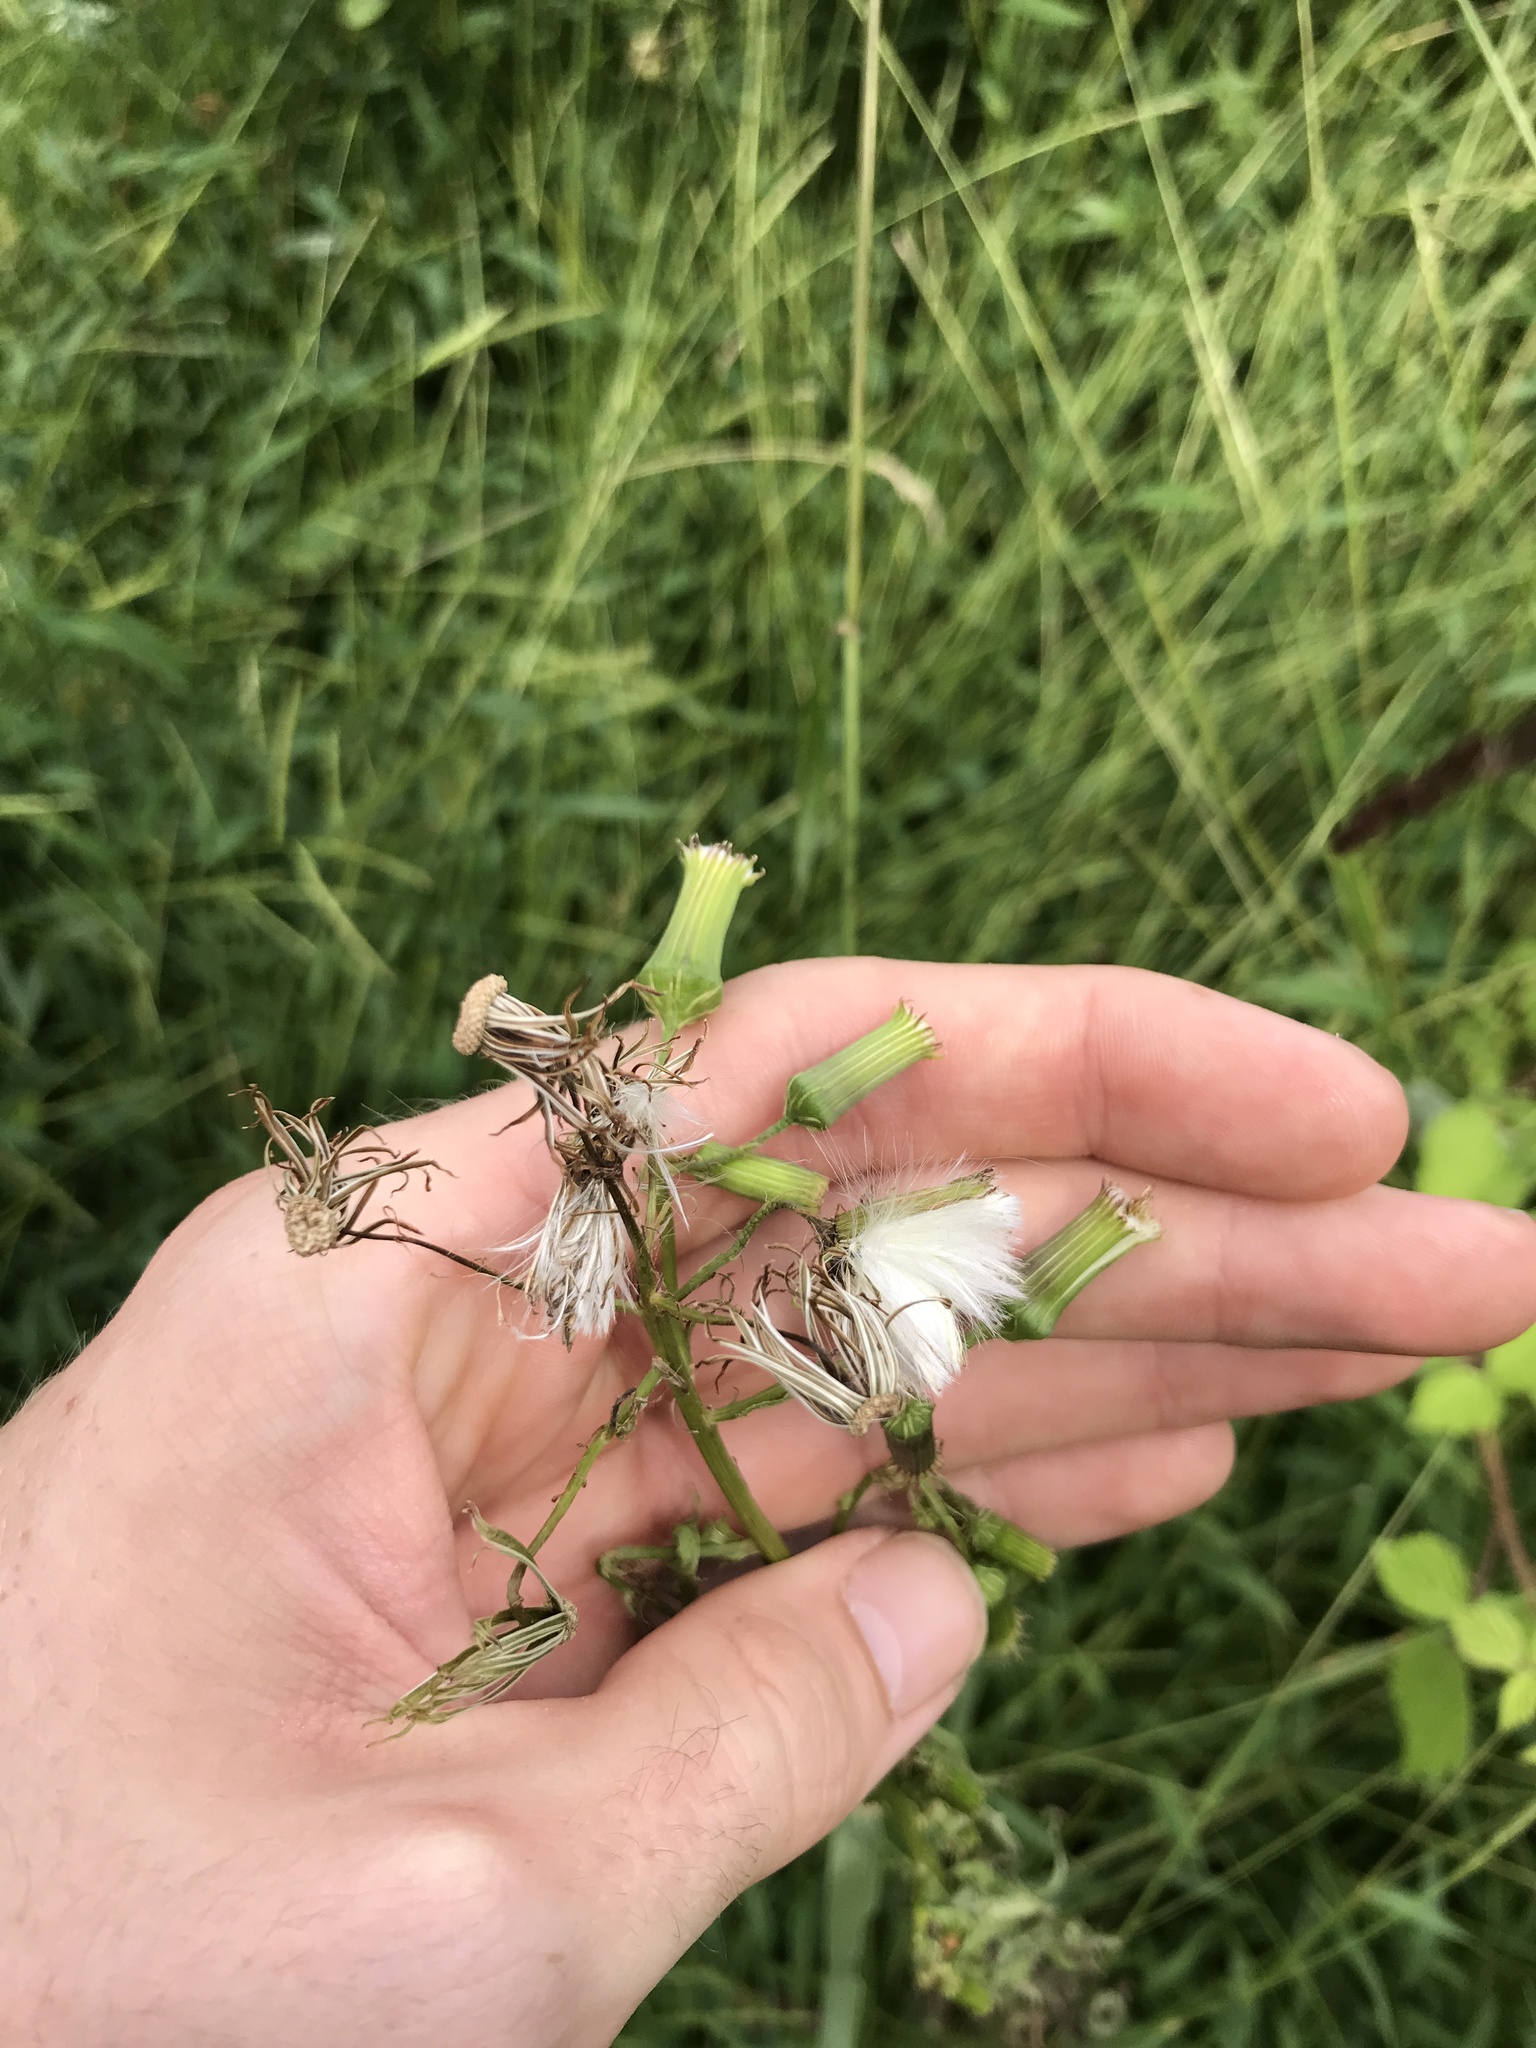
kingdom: Plantae
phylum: Tracheophyta
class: Magnoliopsida
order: Asterales
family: Asteraceae
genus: Erechtites
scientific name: Erechtites hieraciifolius
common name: American burnweed
